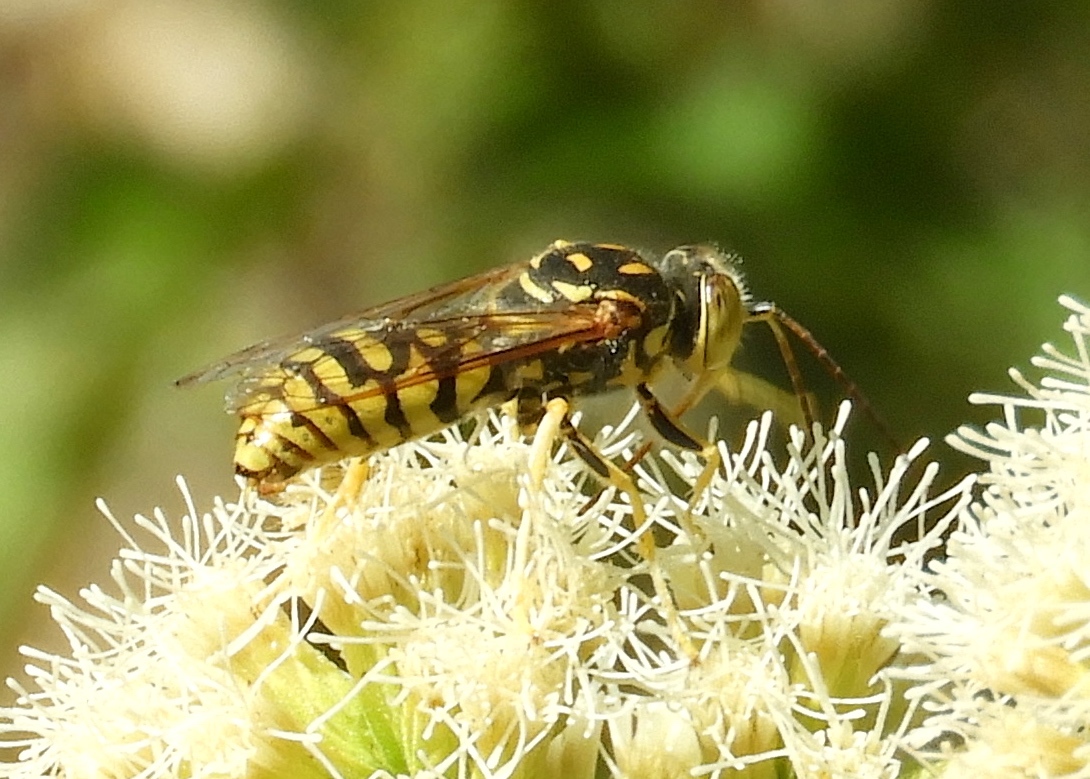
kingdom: Animalia
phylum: Arthropoda
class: Insecta
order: Hymenoptera
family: Crabronidae
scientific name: Crabronidae
